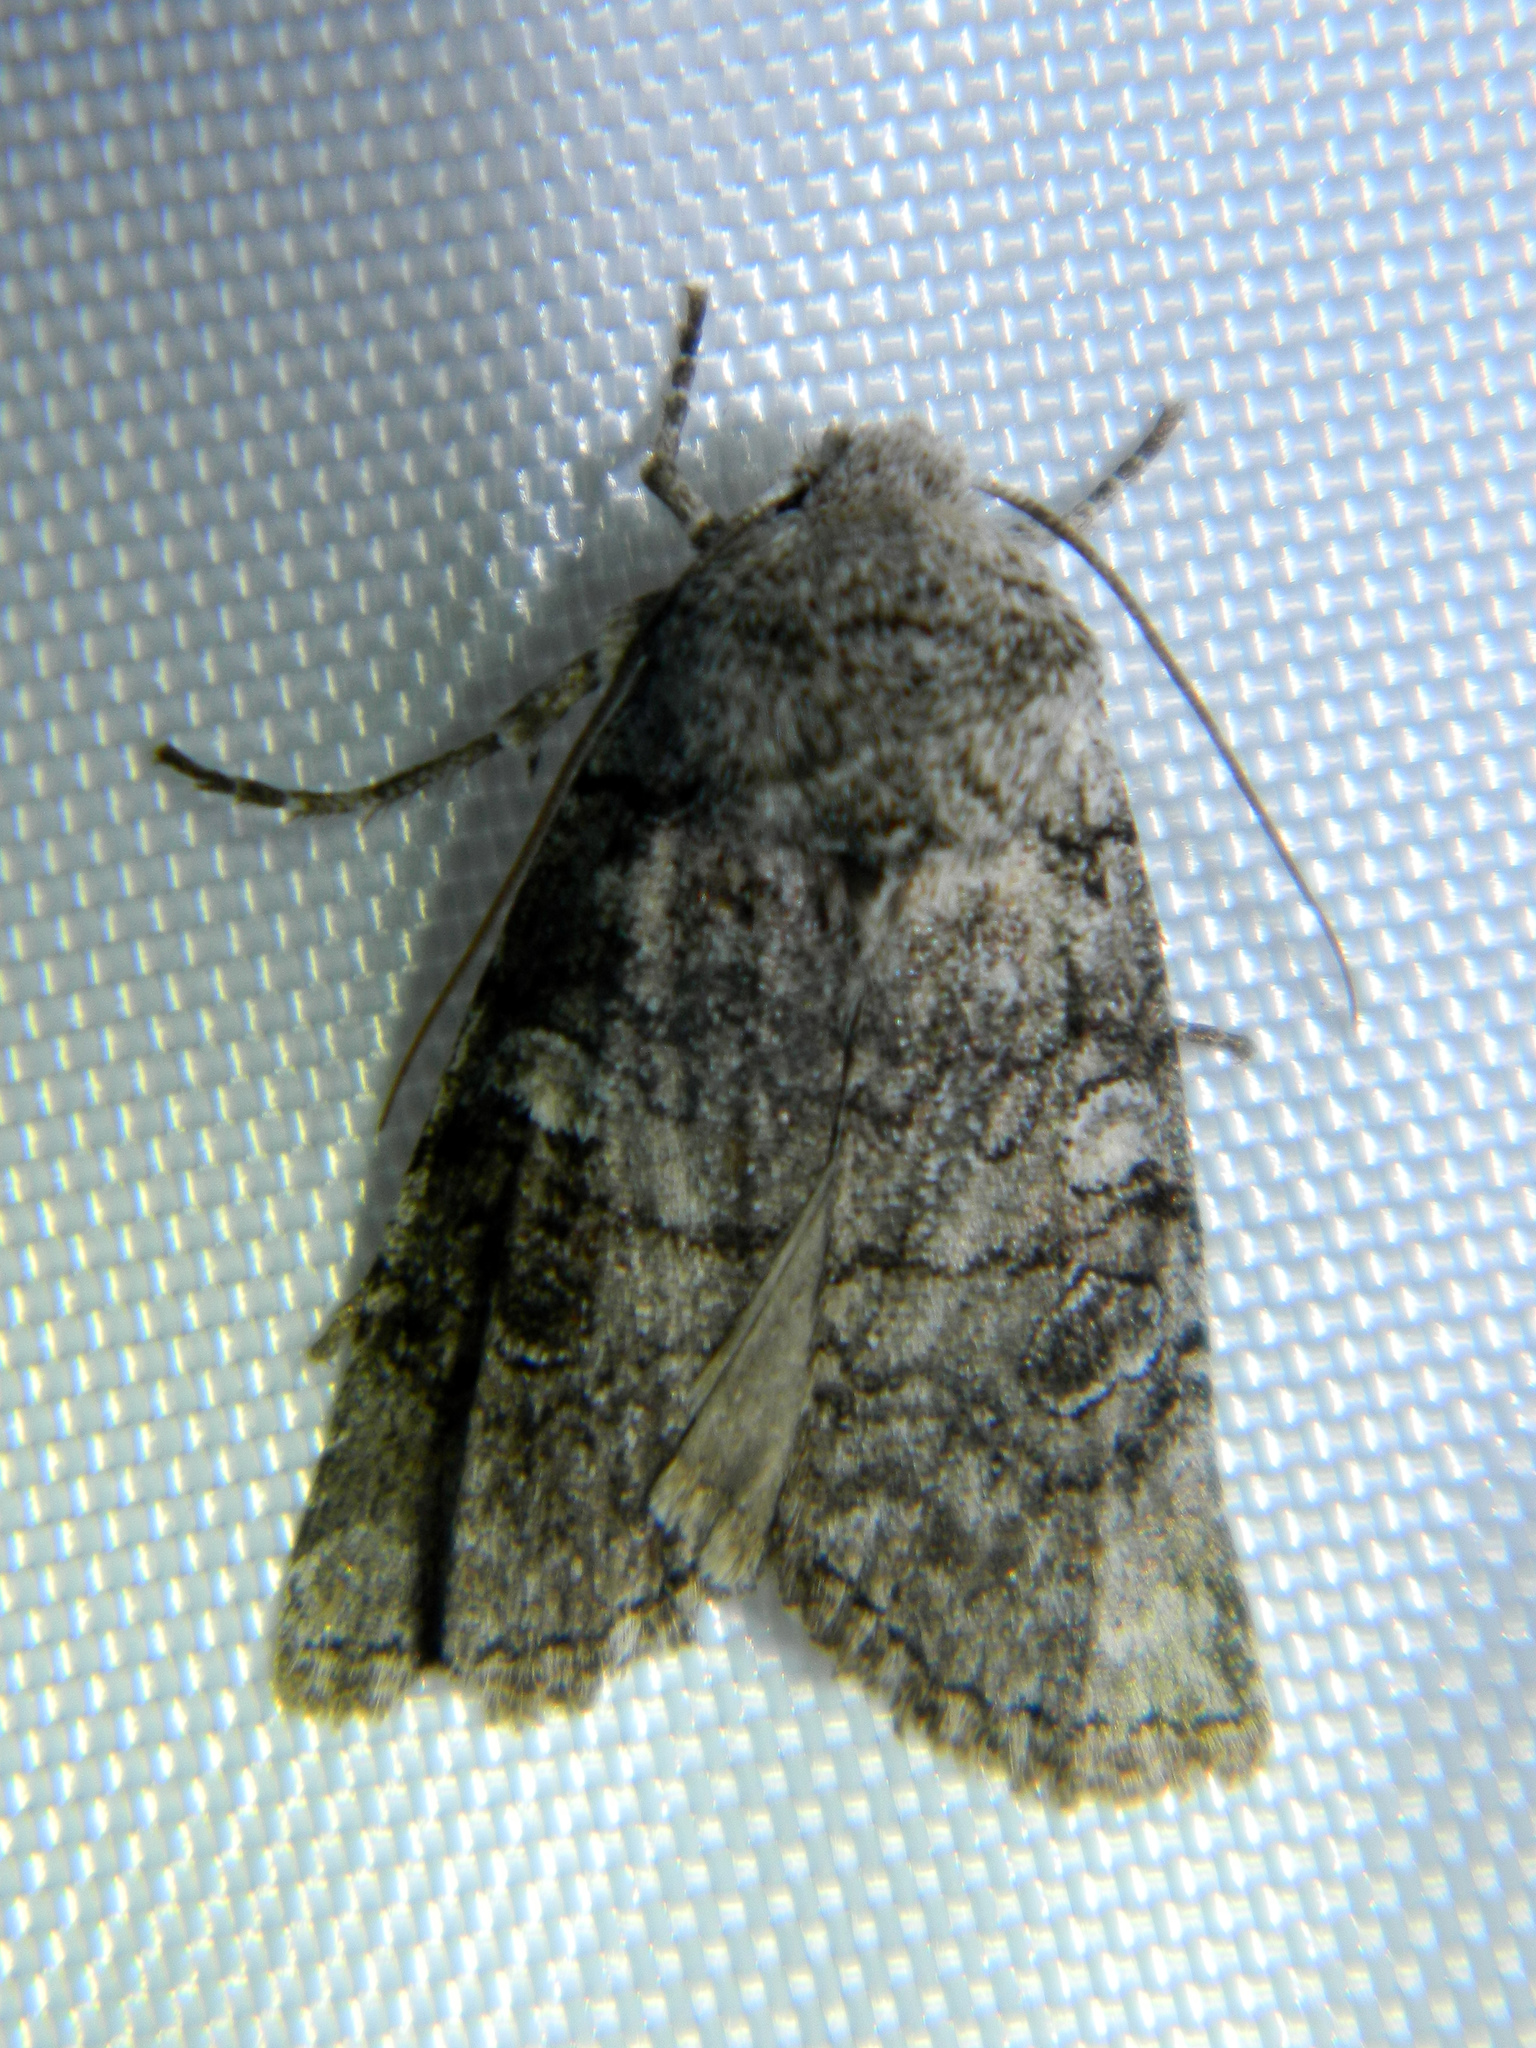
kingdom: Animalia
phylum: Arthropoda
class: Insecta
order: Lepidoptera
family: Noctuidae
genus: Litholomia
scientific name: Litholomia napaea
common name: False pinion moth
